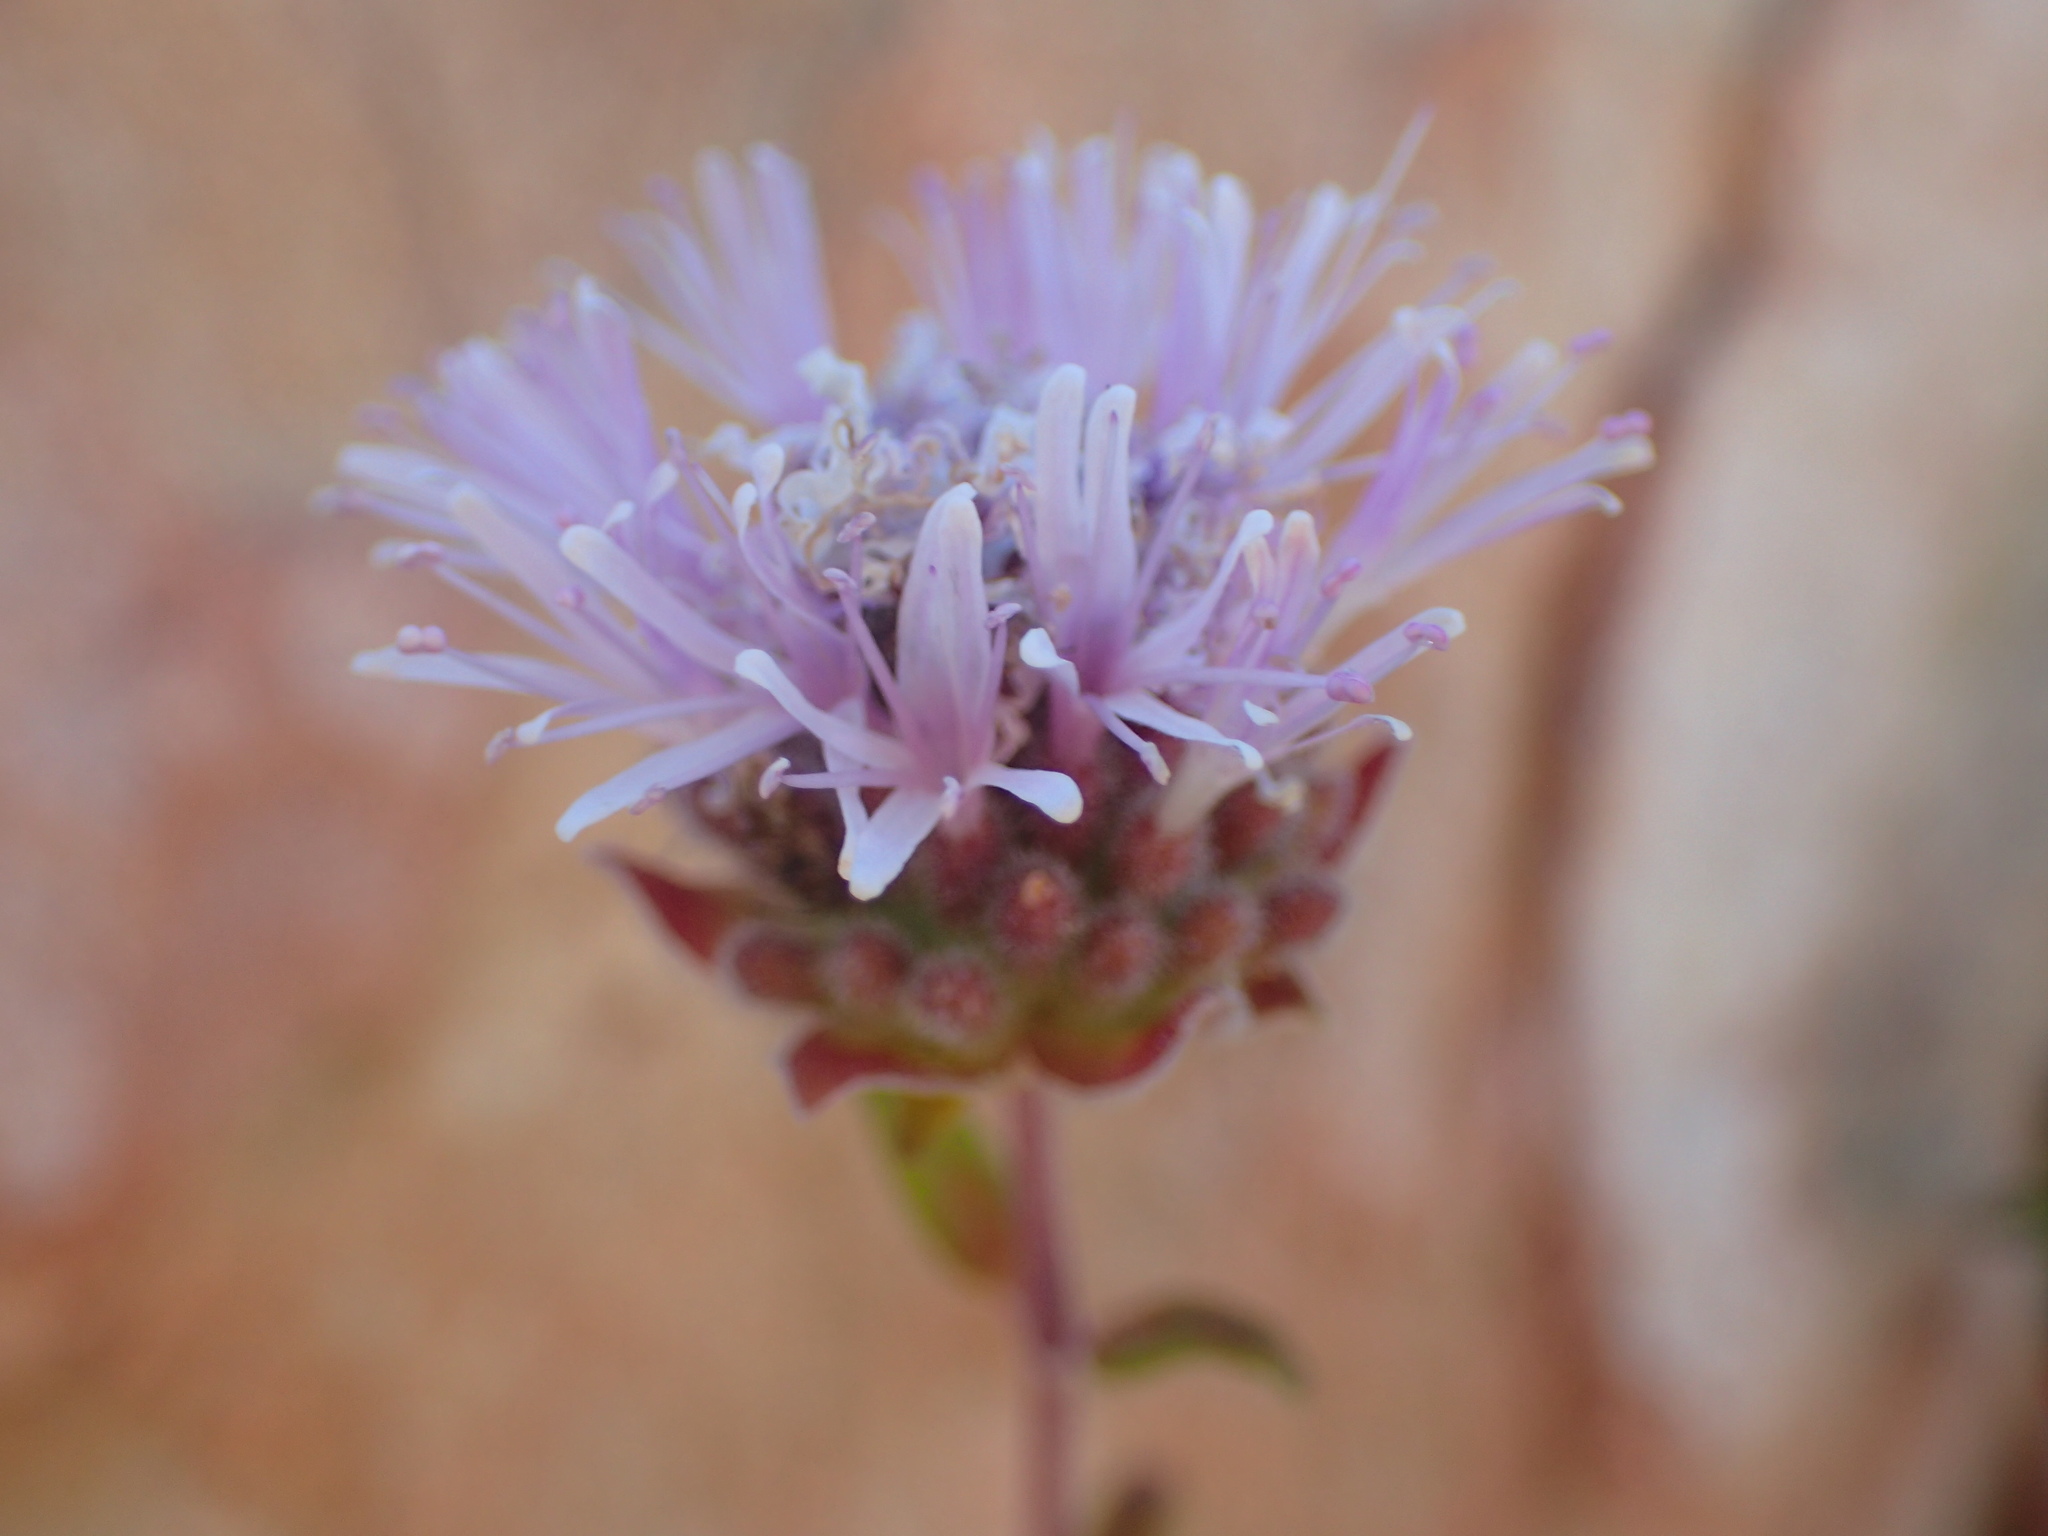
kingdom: Plantae
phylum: Tracheophyta
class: Magnoliopsida
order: Lamiales
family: Lamiaceae
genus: Monardella
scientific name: Monardella hypoleuca
